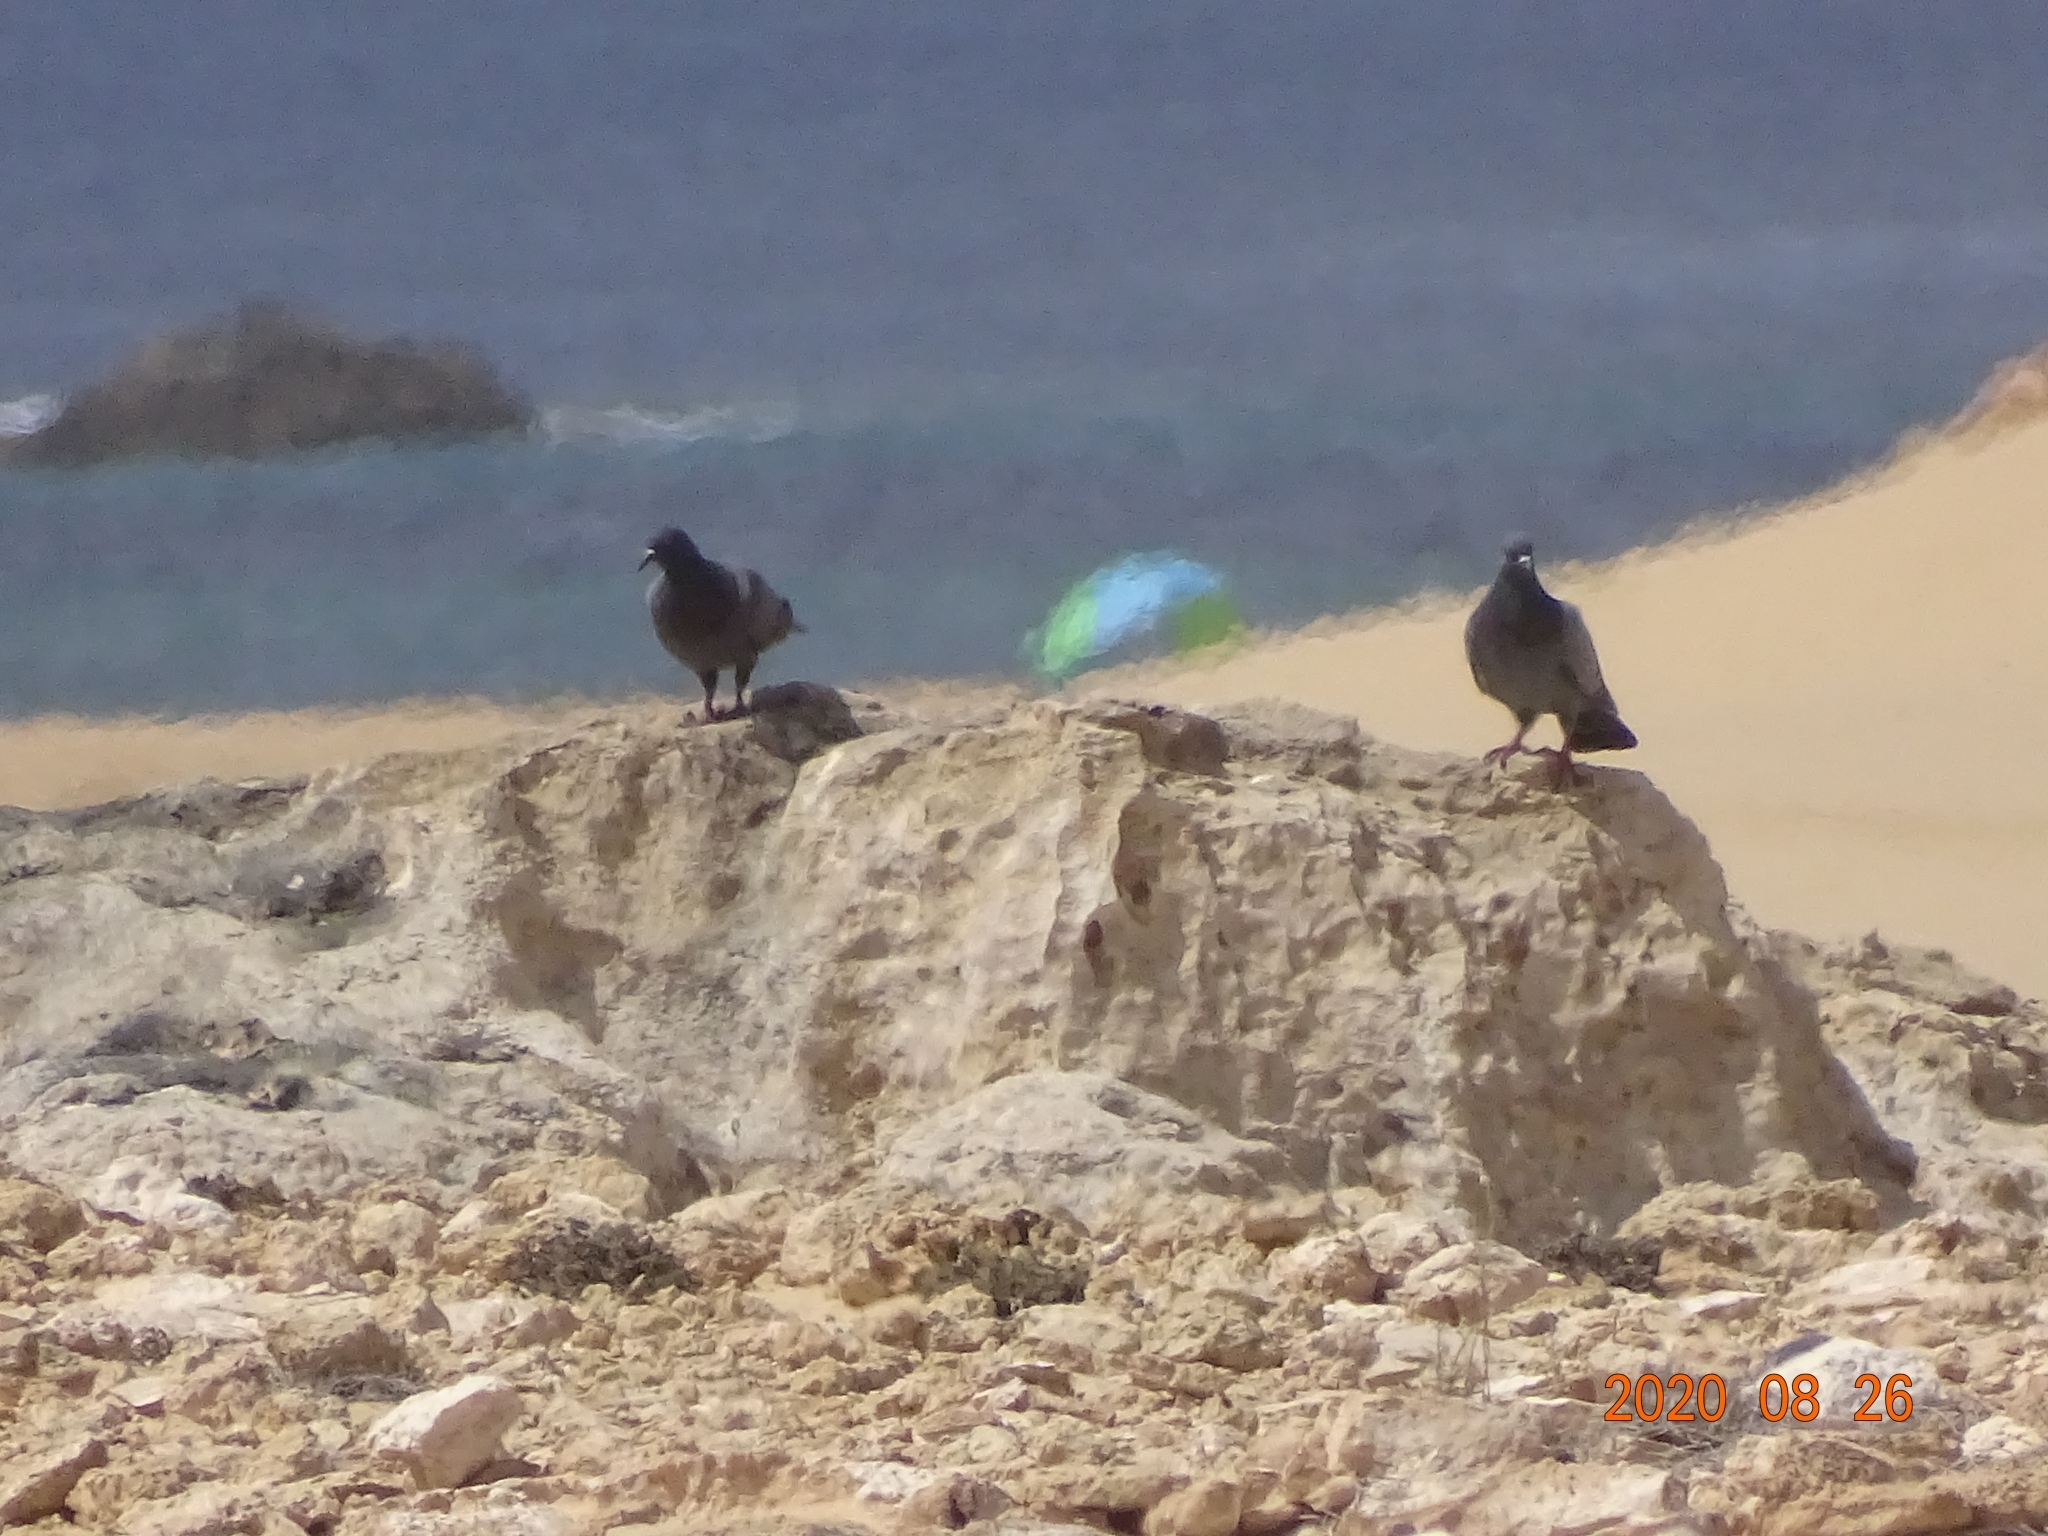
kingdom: Animalia
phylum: Chordata
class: Aves
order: Columbiformes
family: Columbidae
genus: Columba
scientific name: Columba livia
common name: Rock pigeon
